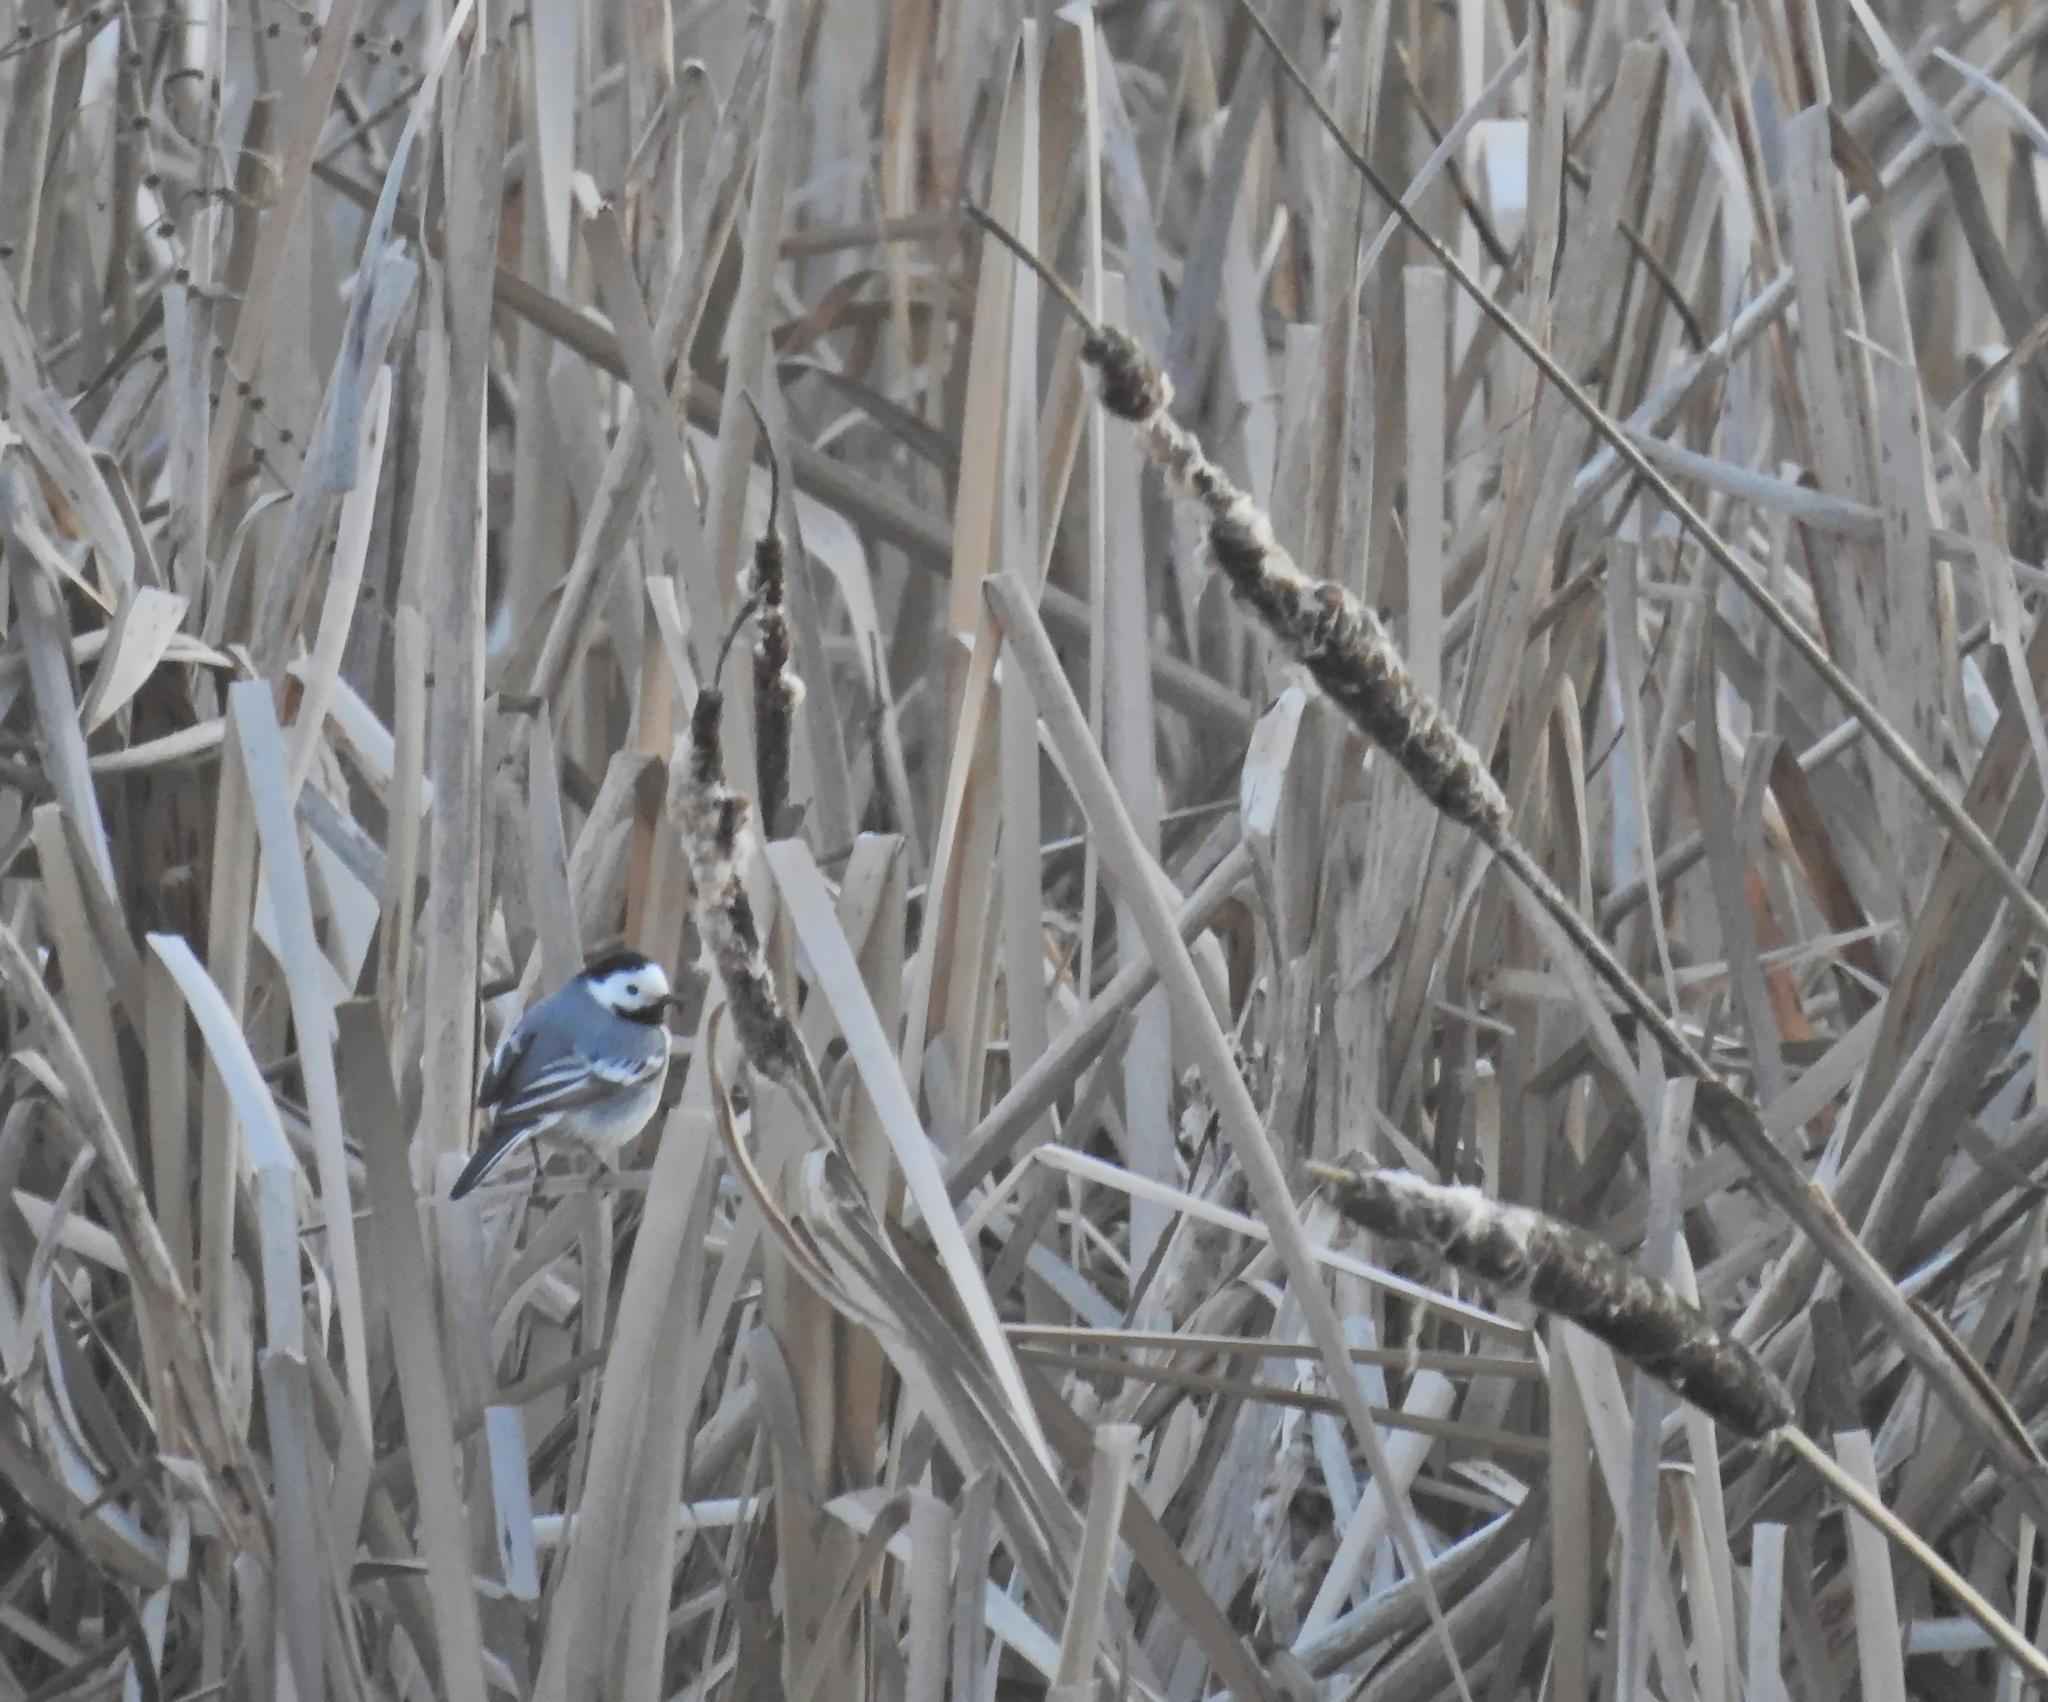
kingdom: Animalia
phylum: Chordata
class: Aves
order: Passeriformes
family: Motacillidae
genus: Motacilla
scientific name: Motacilla alba
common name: White wagtail
